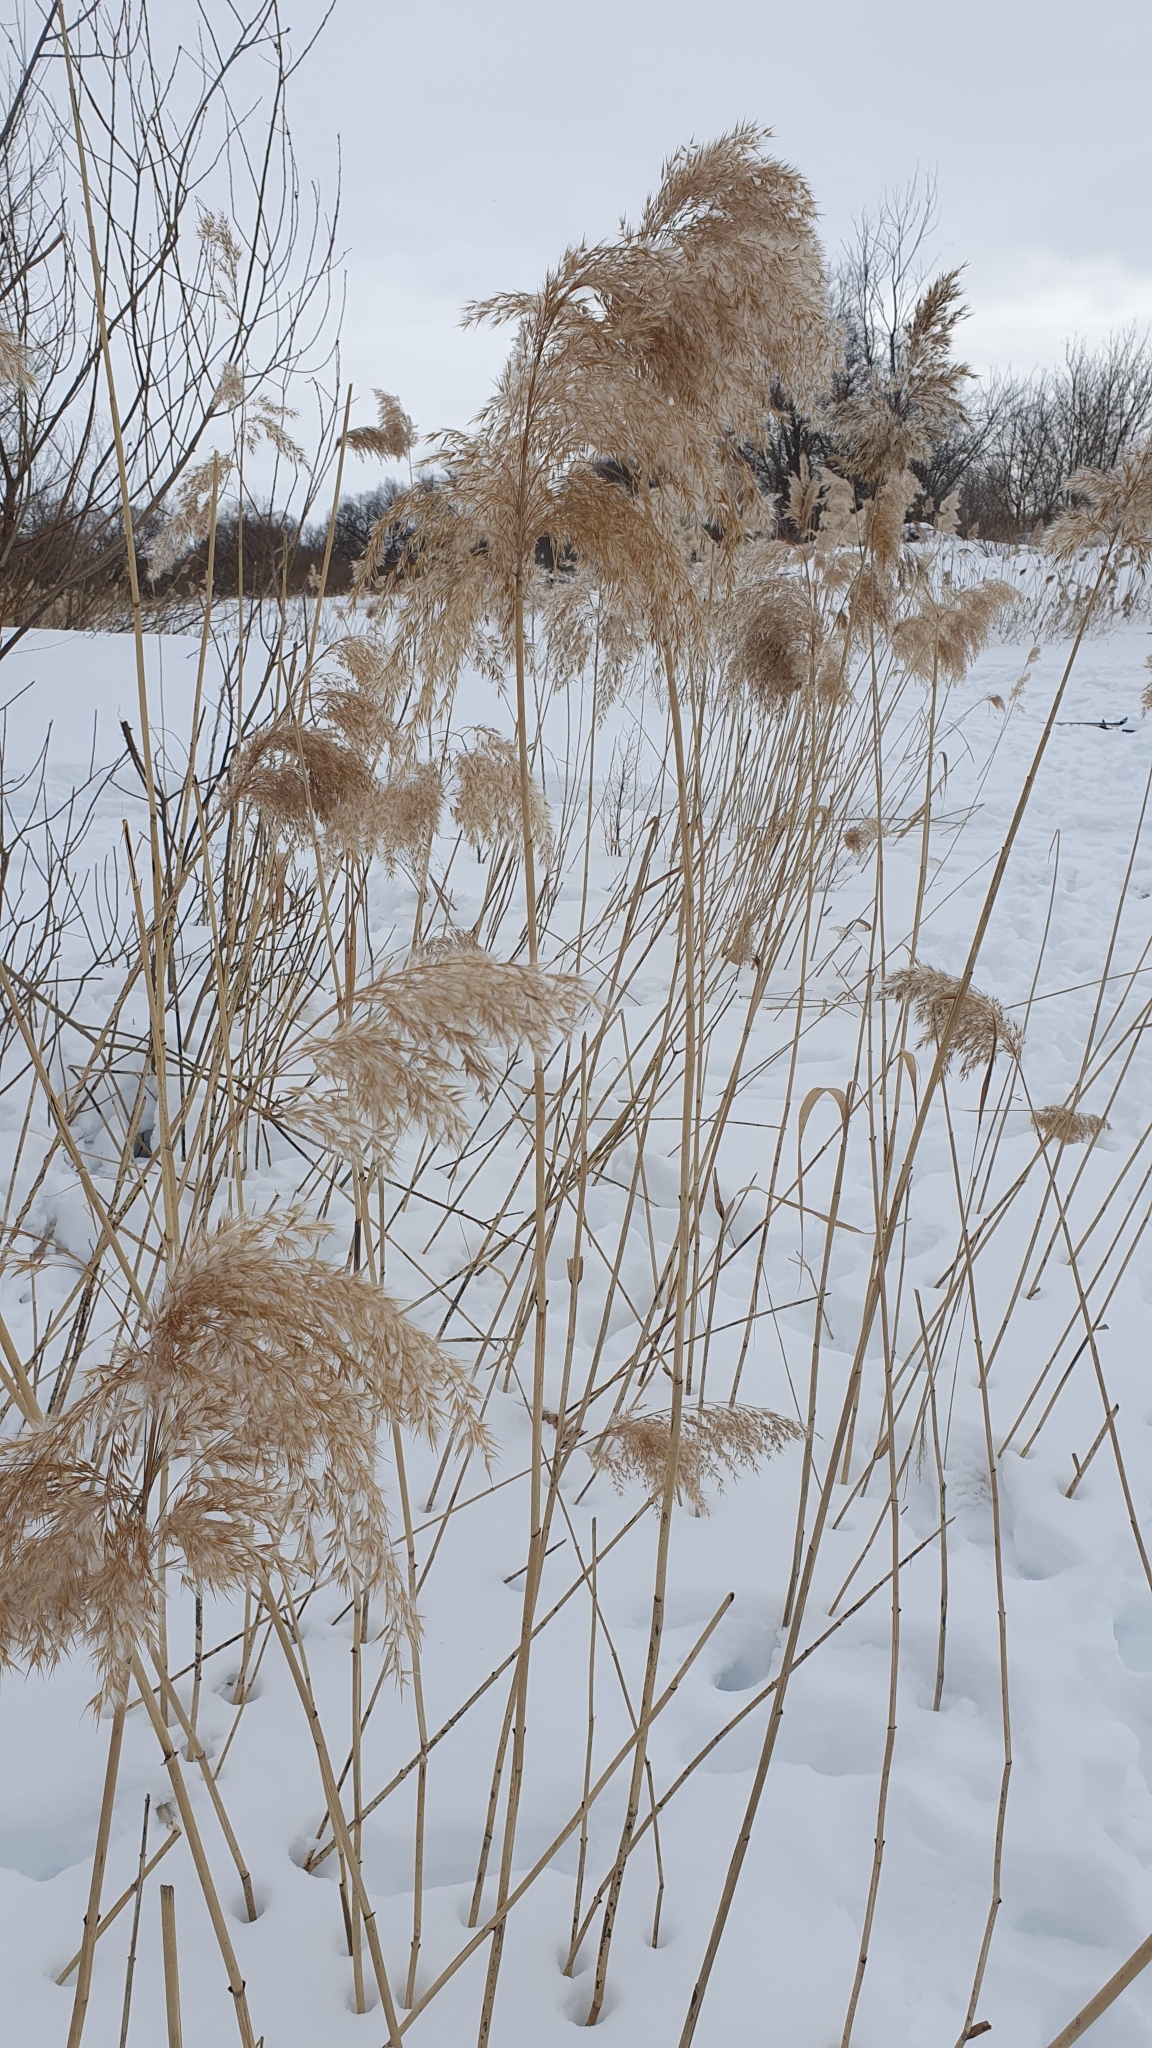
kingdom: Plantae
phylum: Tracheophyta
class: Liliopsida
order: Poales
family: Poaceae
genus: Phragmites
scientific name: Phragmites australis
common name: Common reed
